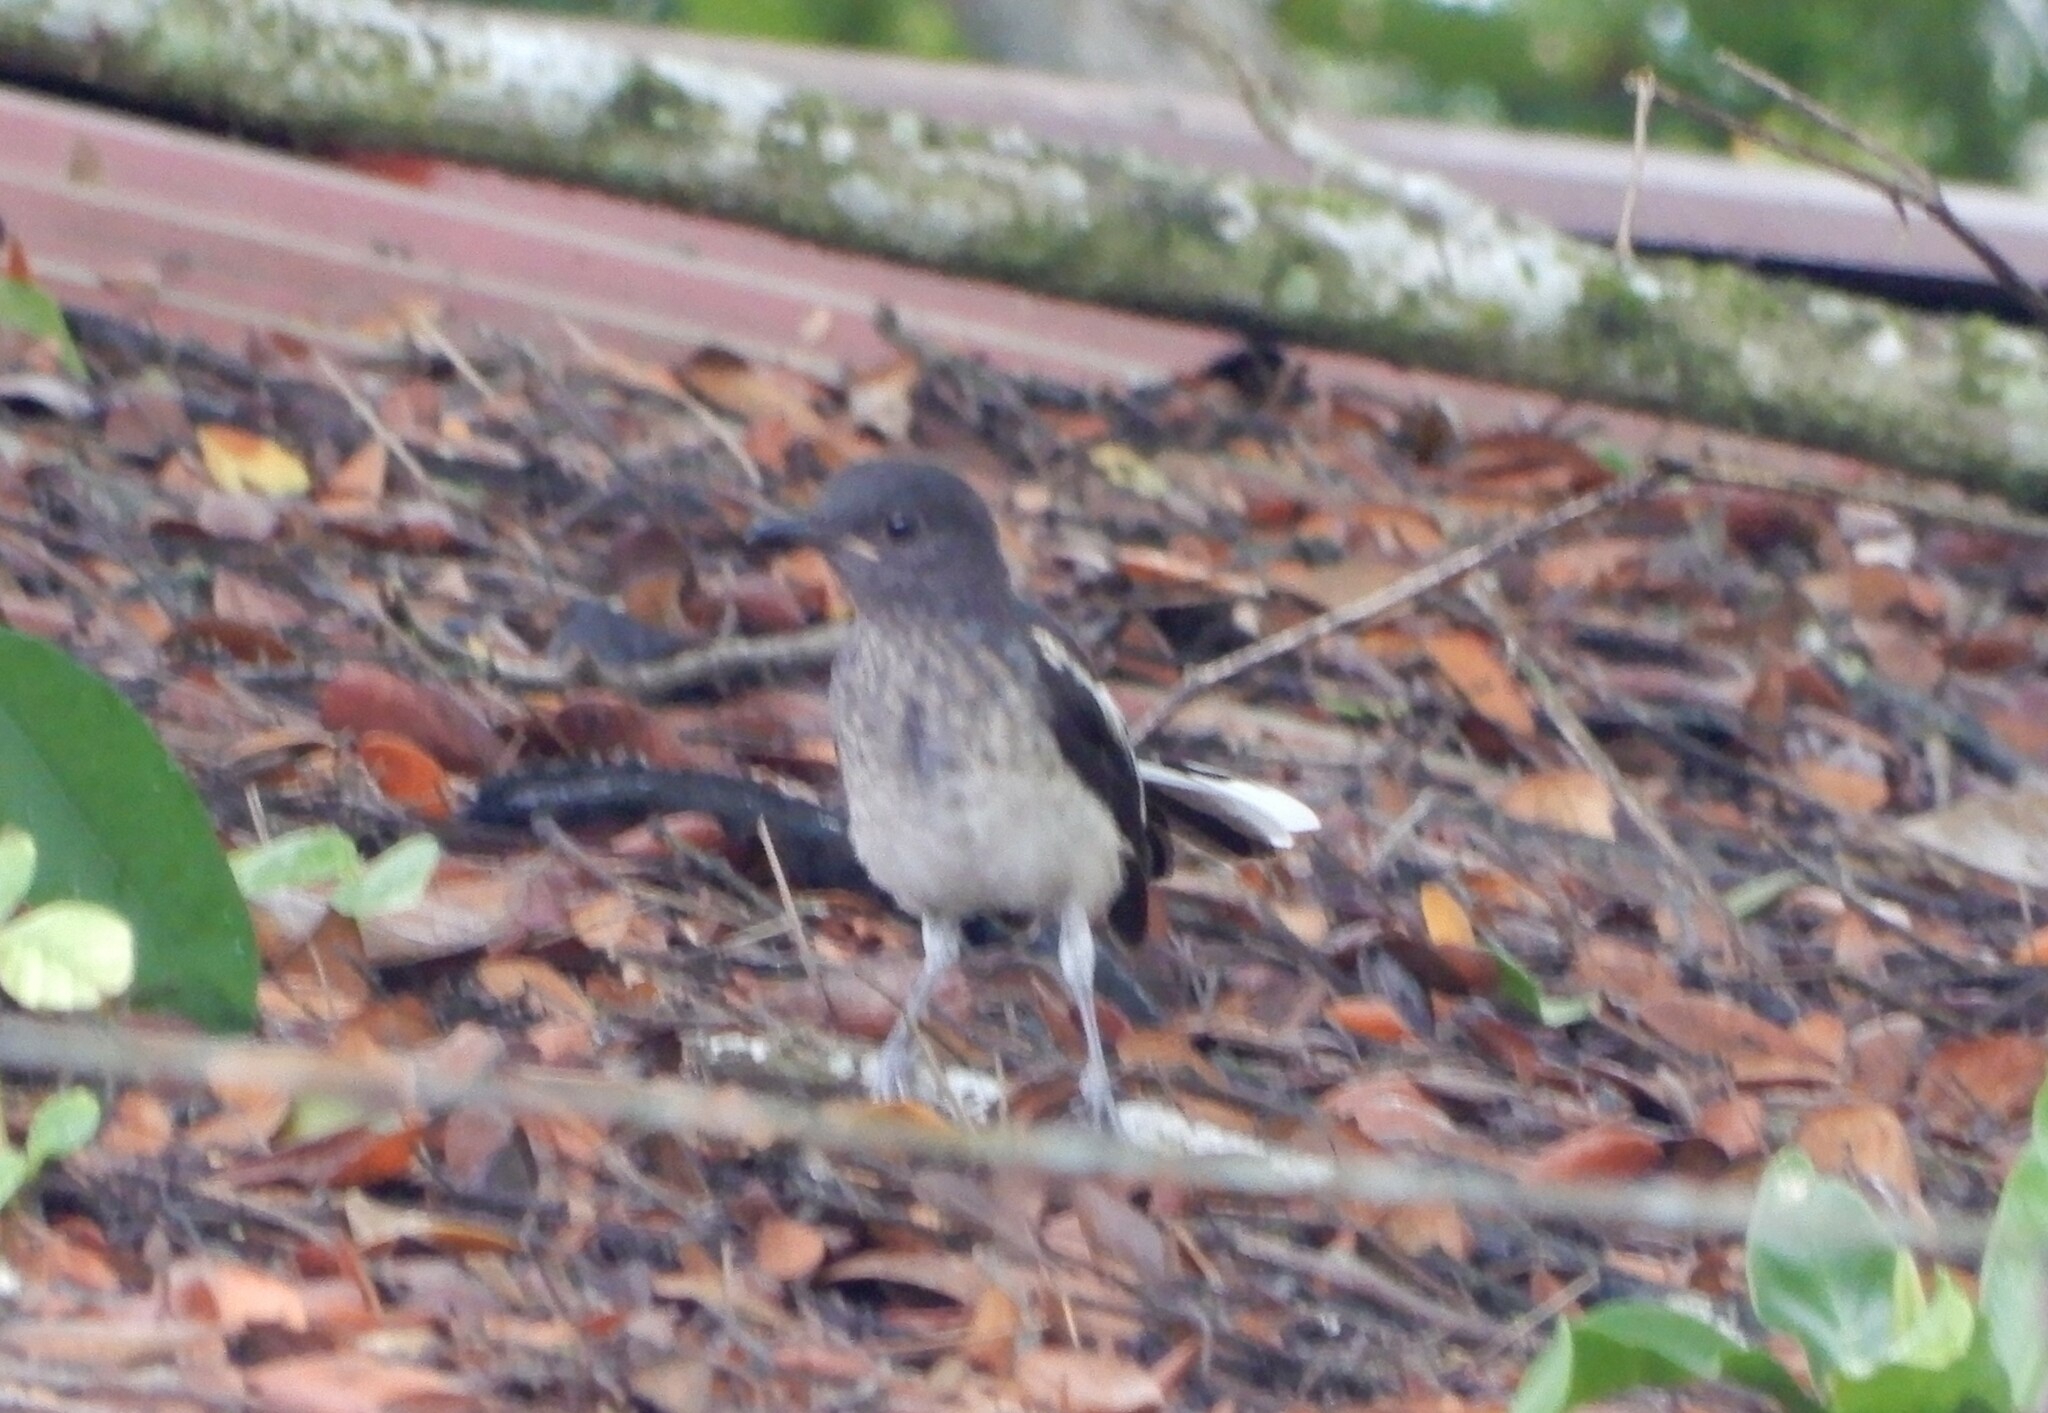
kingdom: Animalia
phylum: Chordata
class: Aves
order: Passeriformes
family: Muscicapidae
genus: Copsychus
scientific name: Copsychus saularis
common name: Oriental magpie-robin
